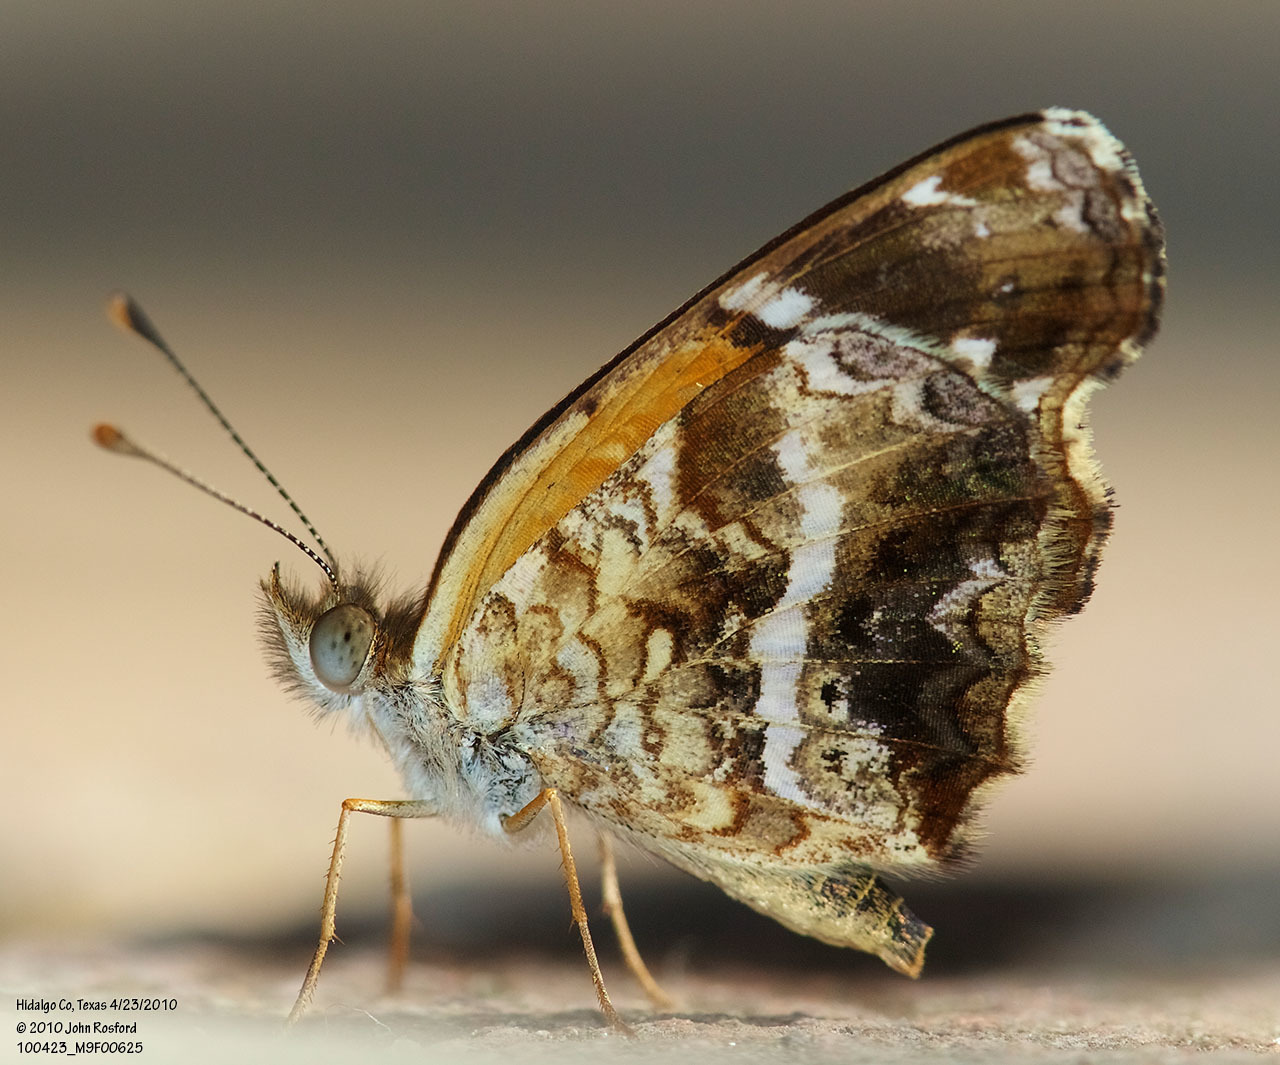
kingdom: Animalia
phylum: Arthropoda
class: Insecta
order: Lepidoptera
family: Nymphalidae
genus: Anthanassa
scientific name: Anthanassa texana
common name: Texan crescent
